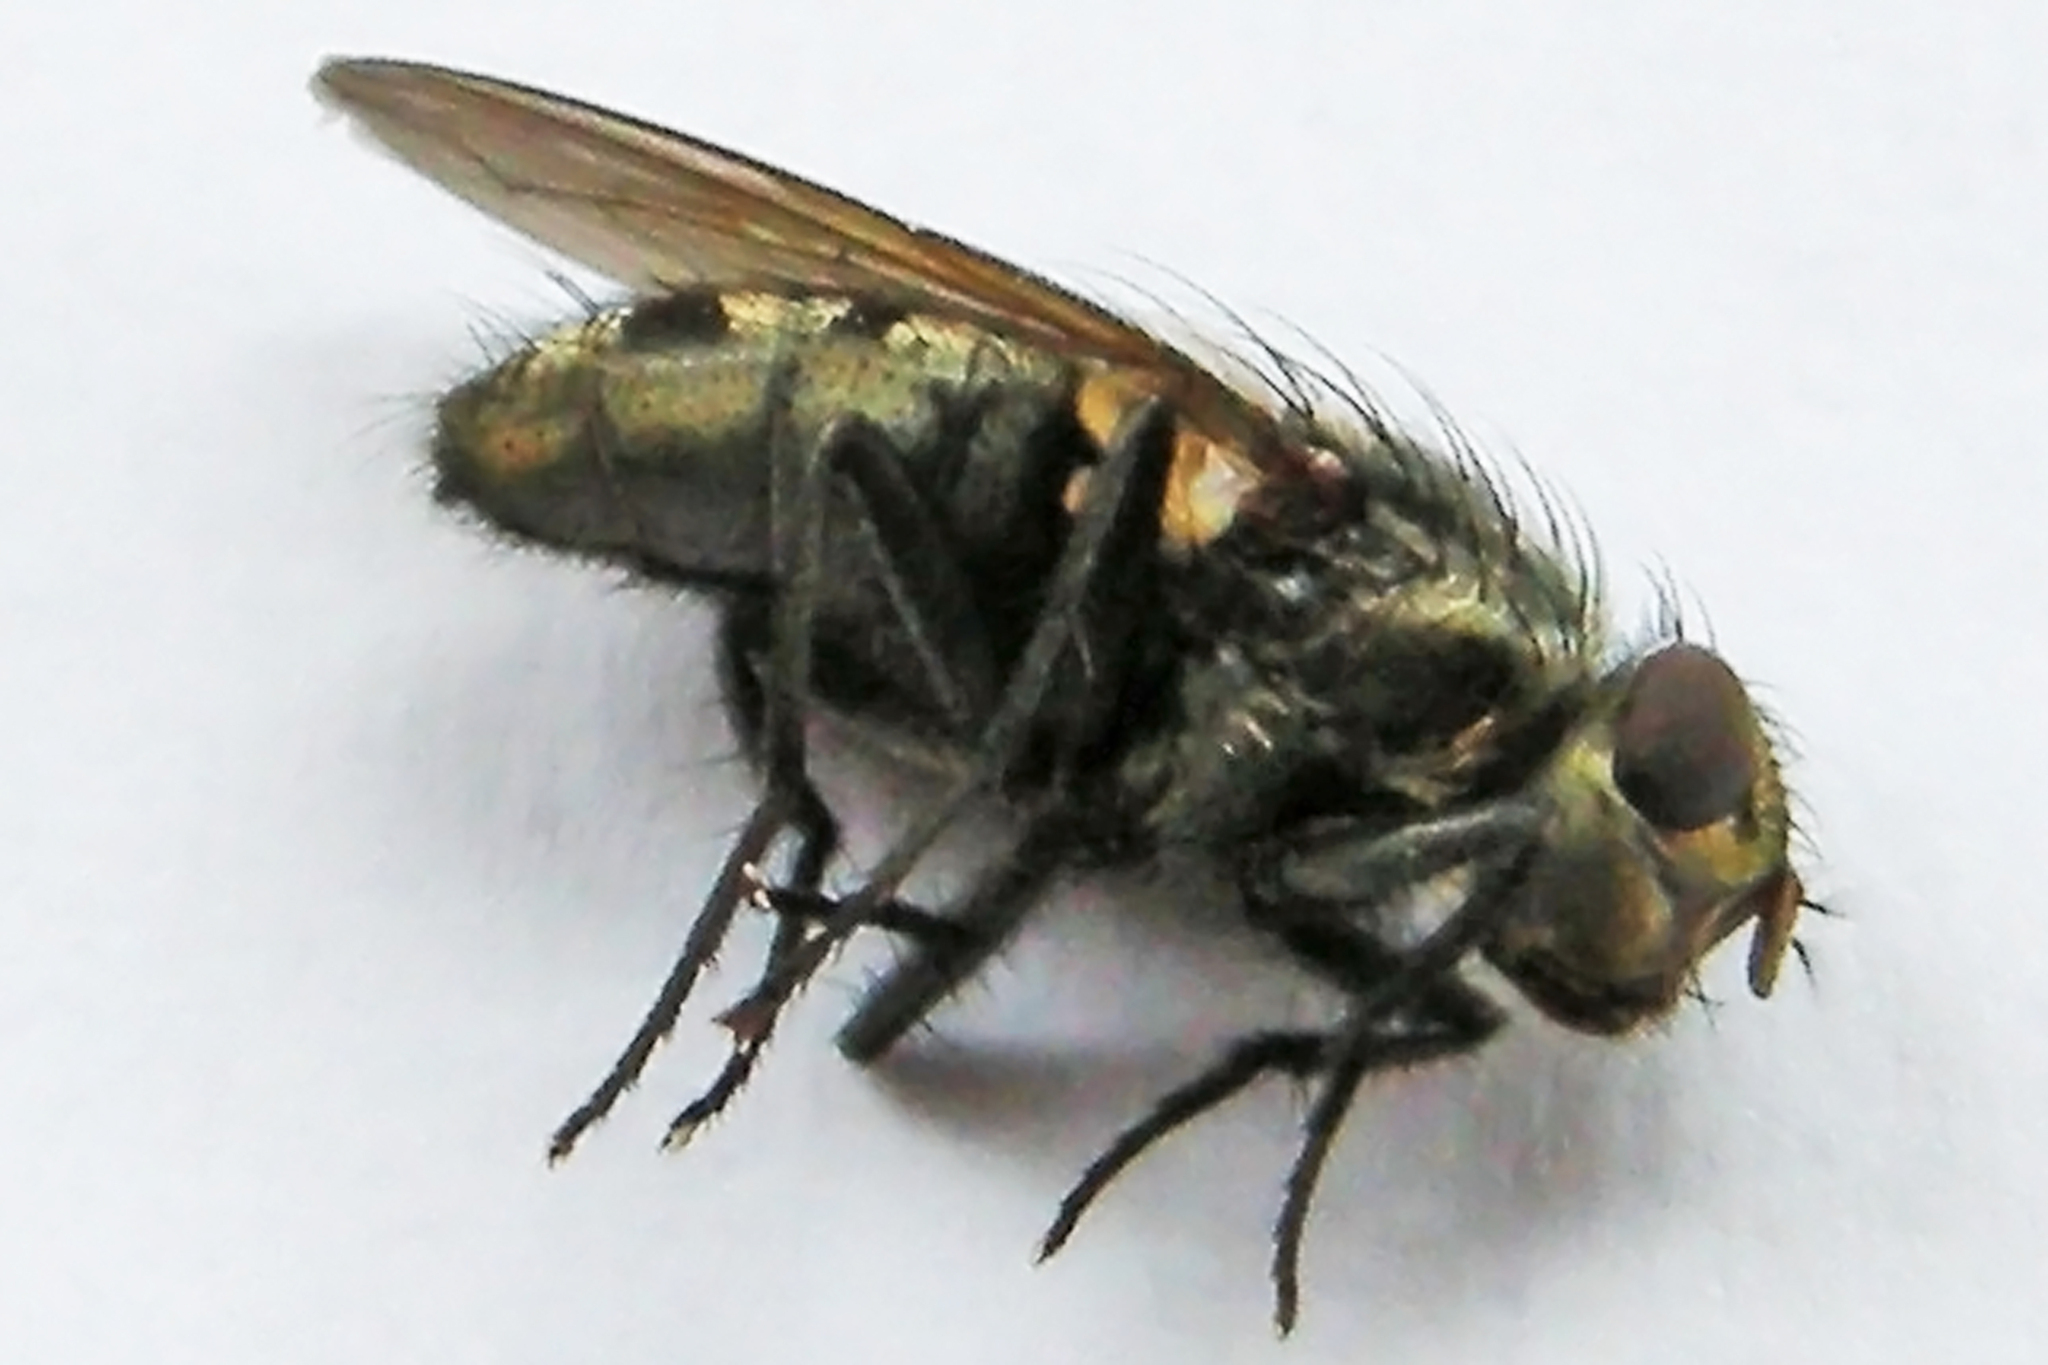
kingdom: Animalia
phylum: Arthropoda
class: Insecta
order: Diptera
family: Polleniidae
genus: Pollenia
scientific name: Pollenia
